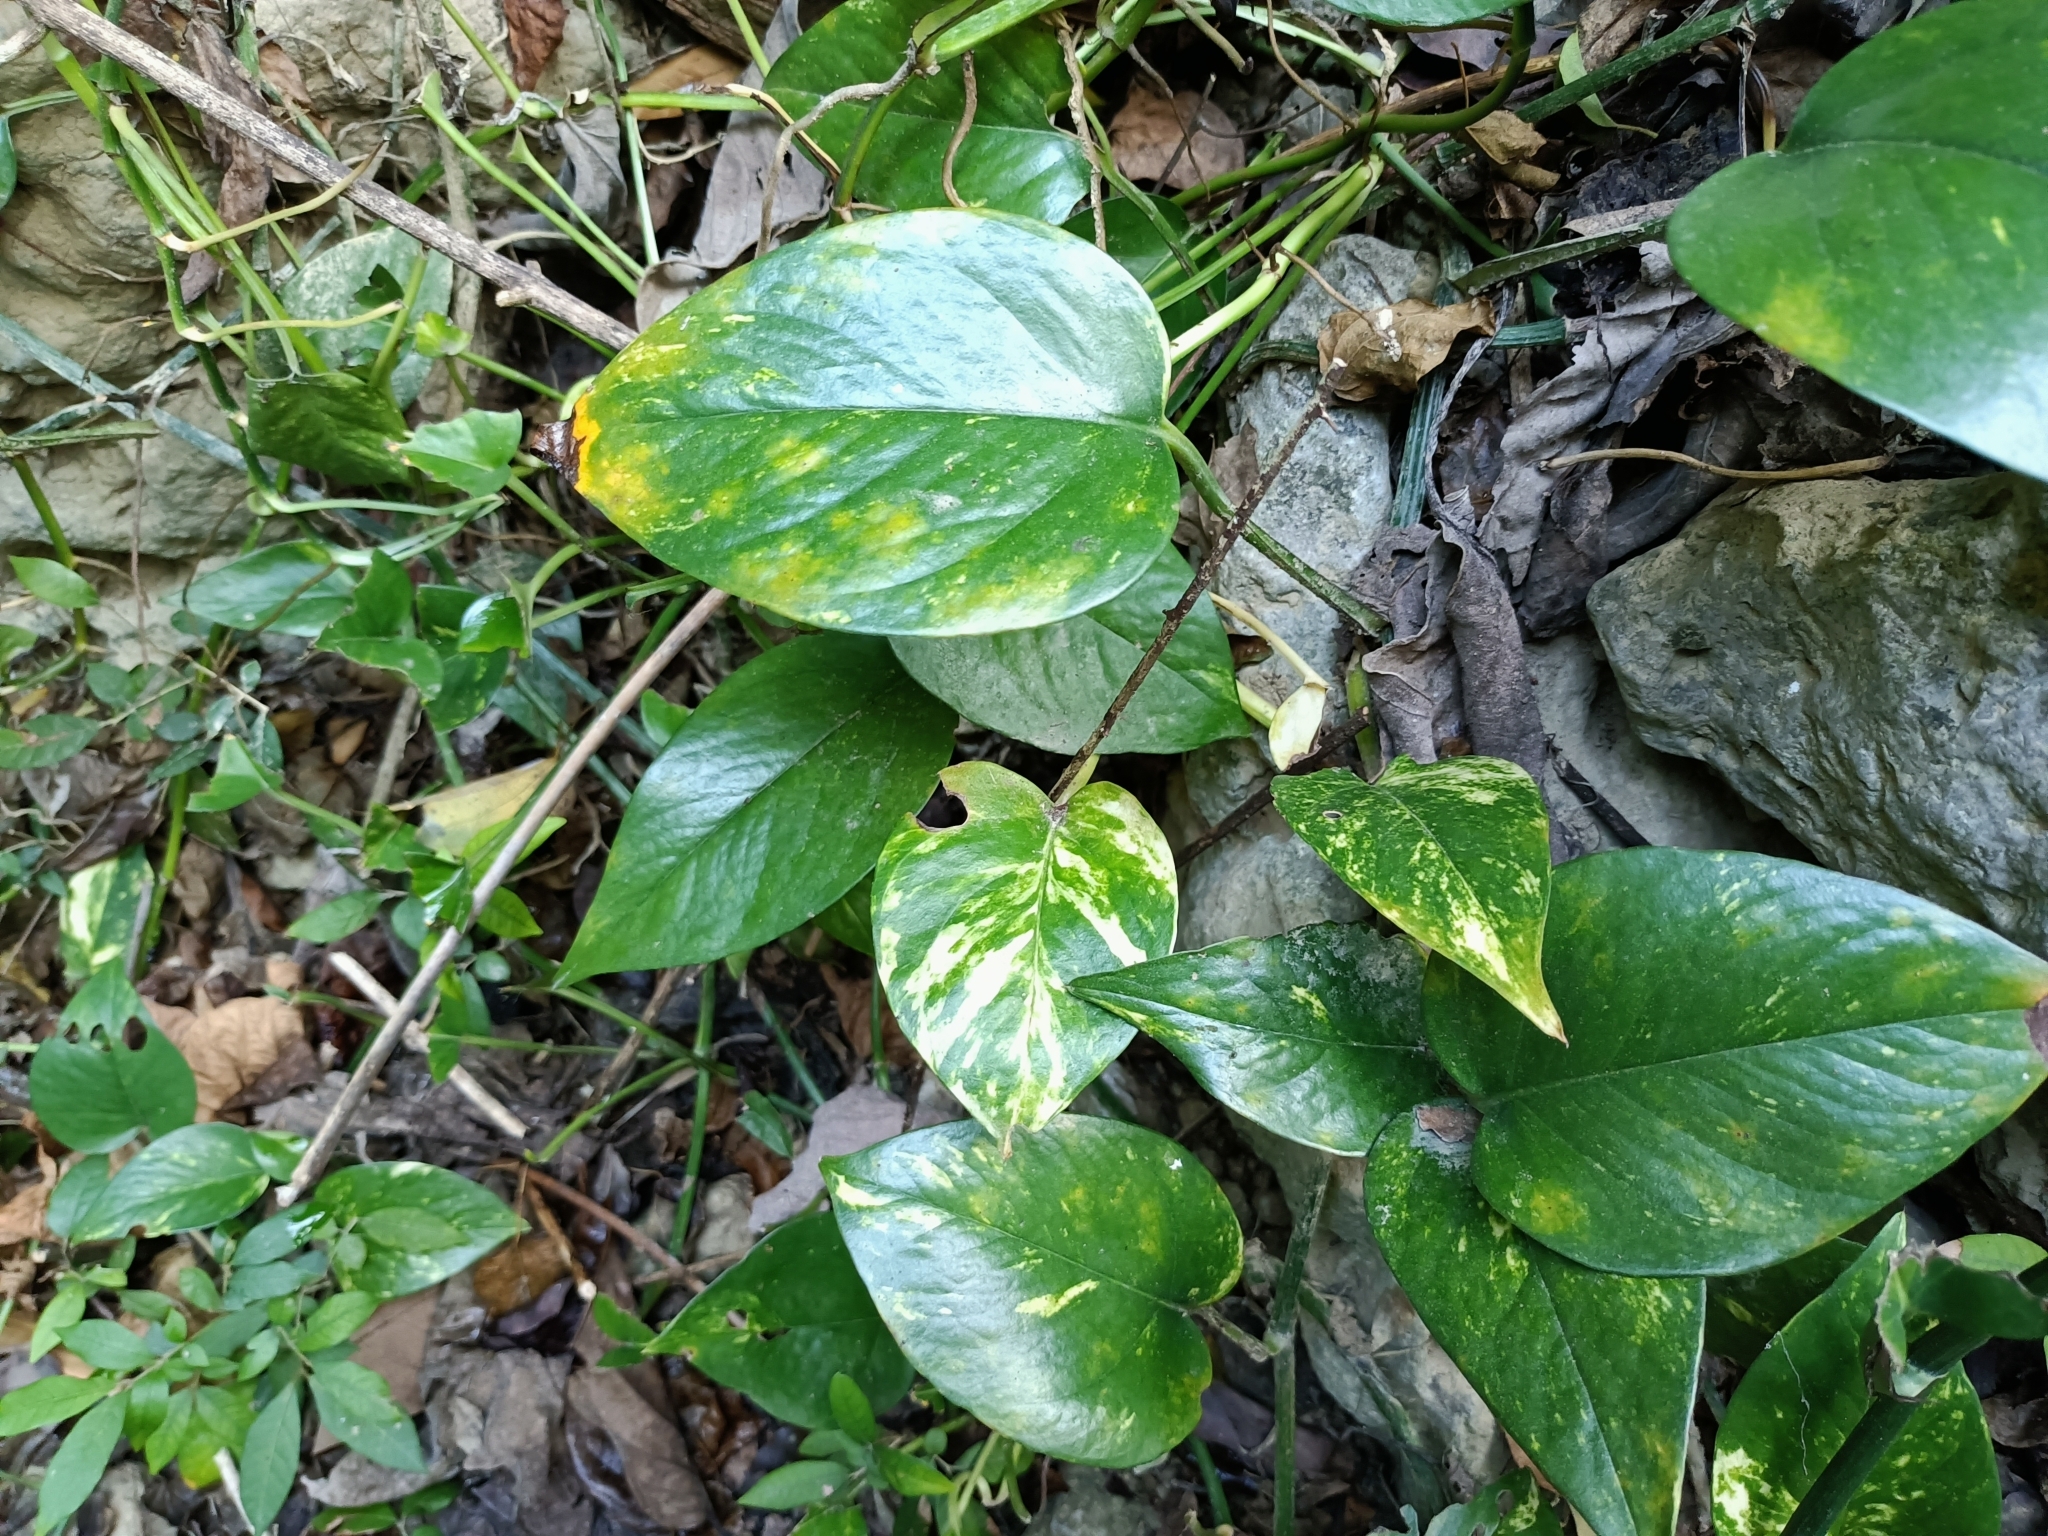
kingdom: Plantae
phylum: Tracheophyta
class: Liliopsida
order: Alismatales
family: Araceae
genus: Epipremnum
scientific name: Epipremnum aureum
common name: Golden hunter's-robe
